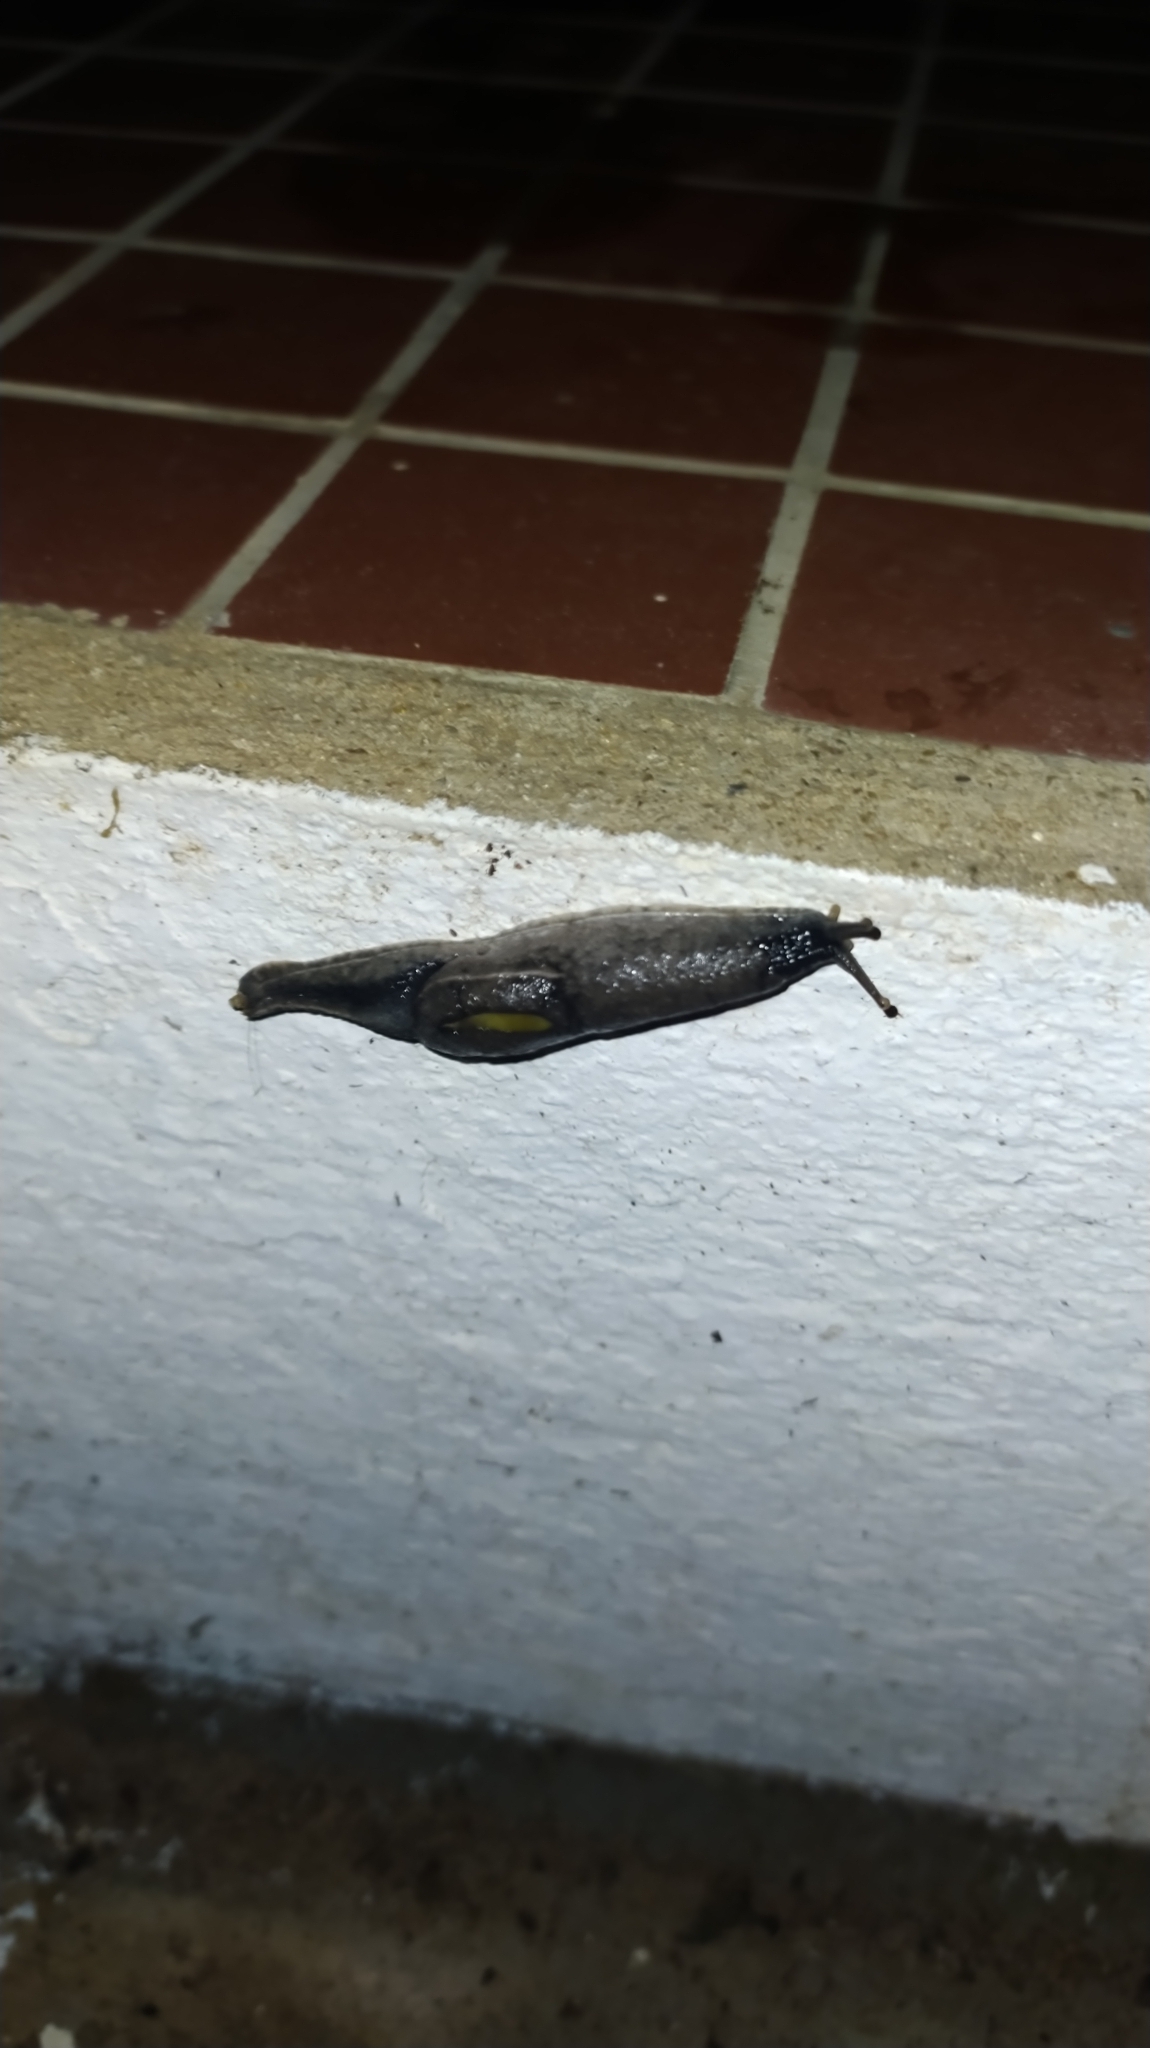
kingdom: Animalia
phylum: Mollusca
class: Gastropoda
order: Stylommatophora
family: Ariophantidae
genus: Parmarion
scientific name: Parmarion martensi
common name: Semi-slug
